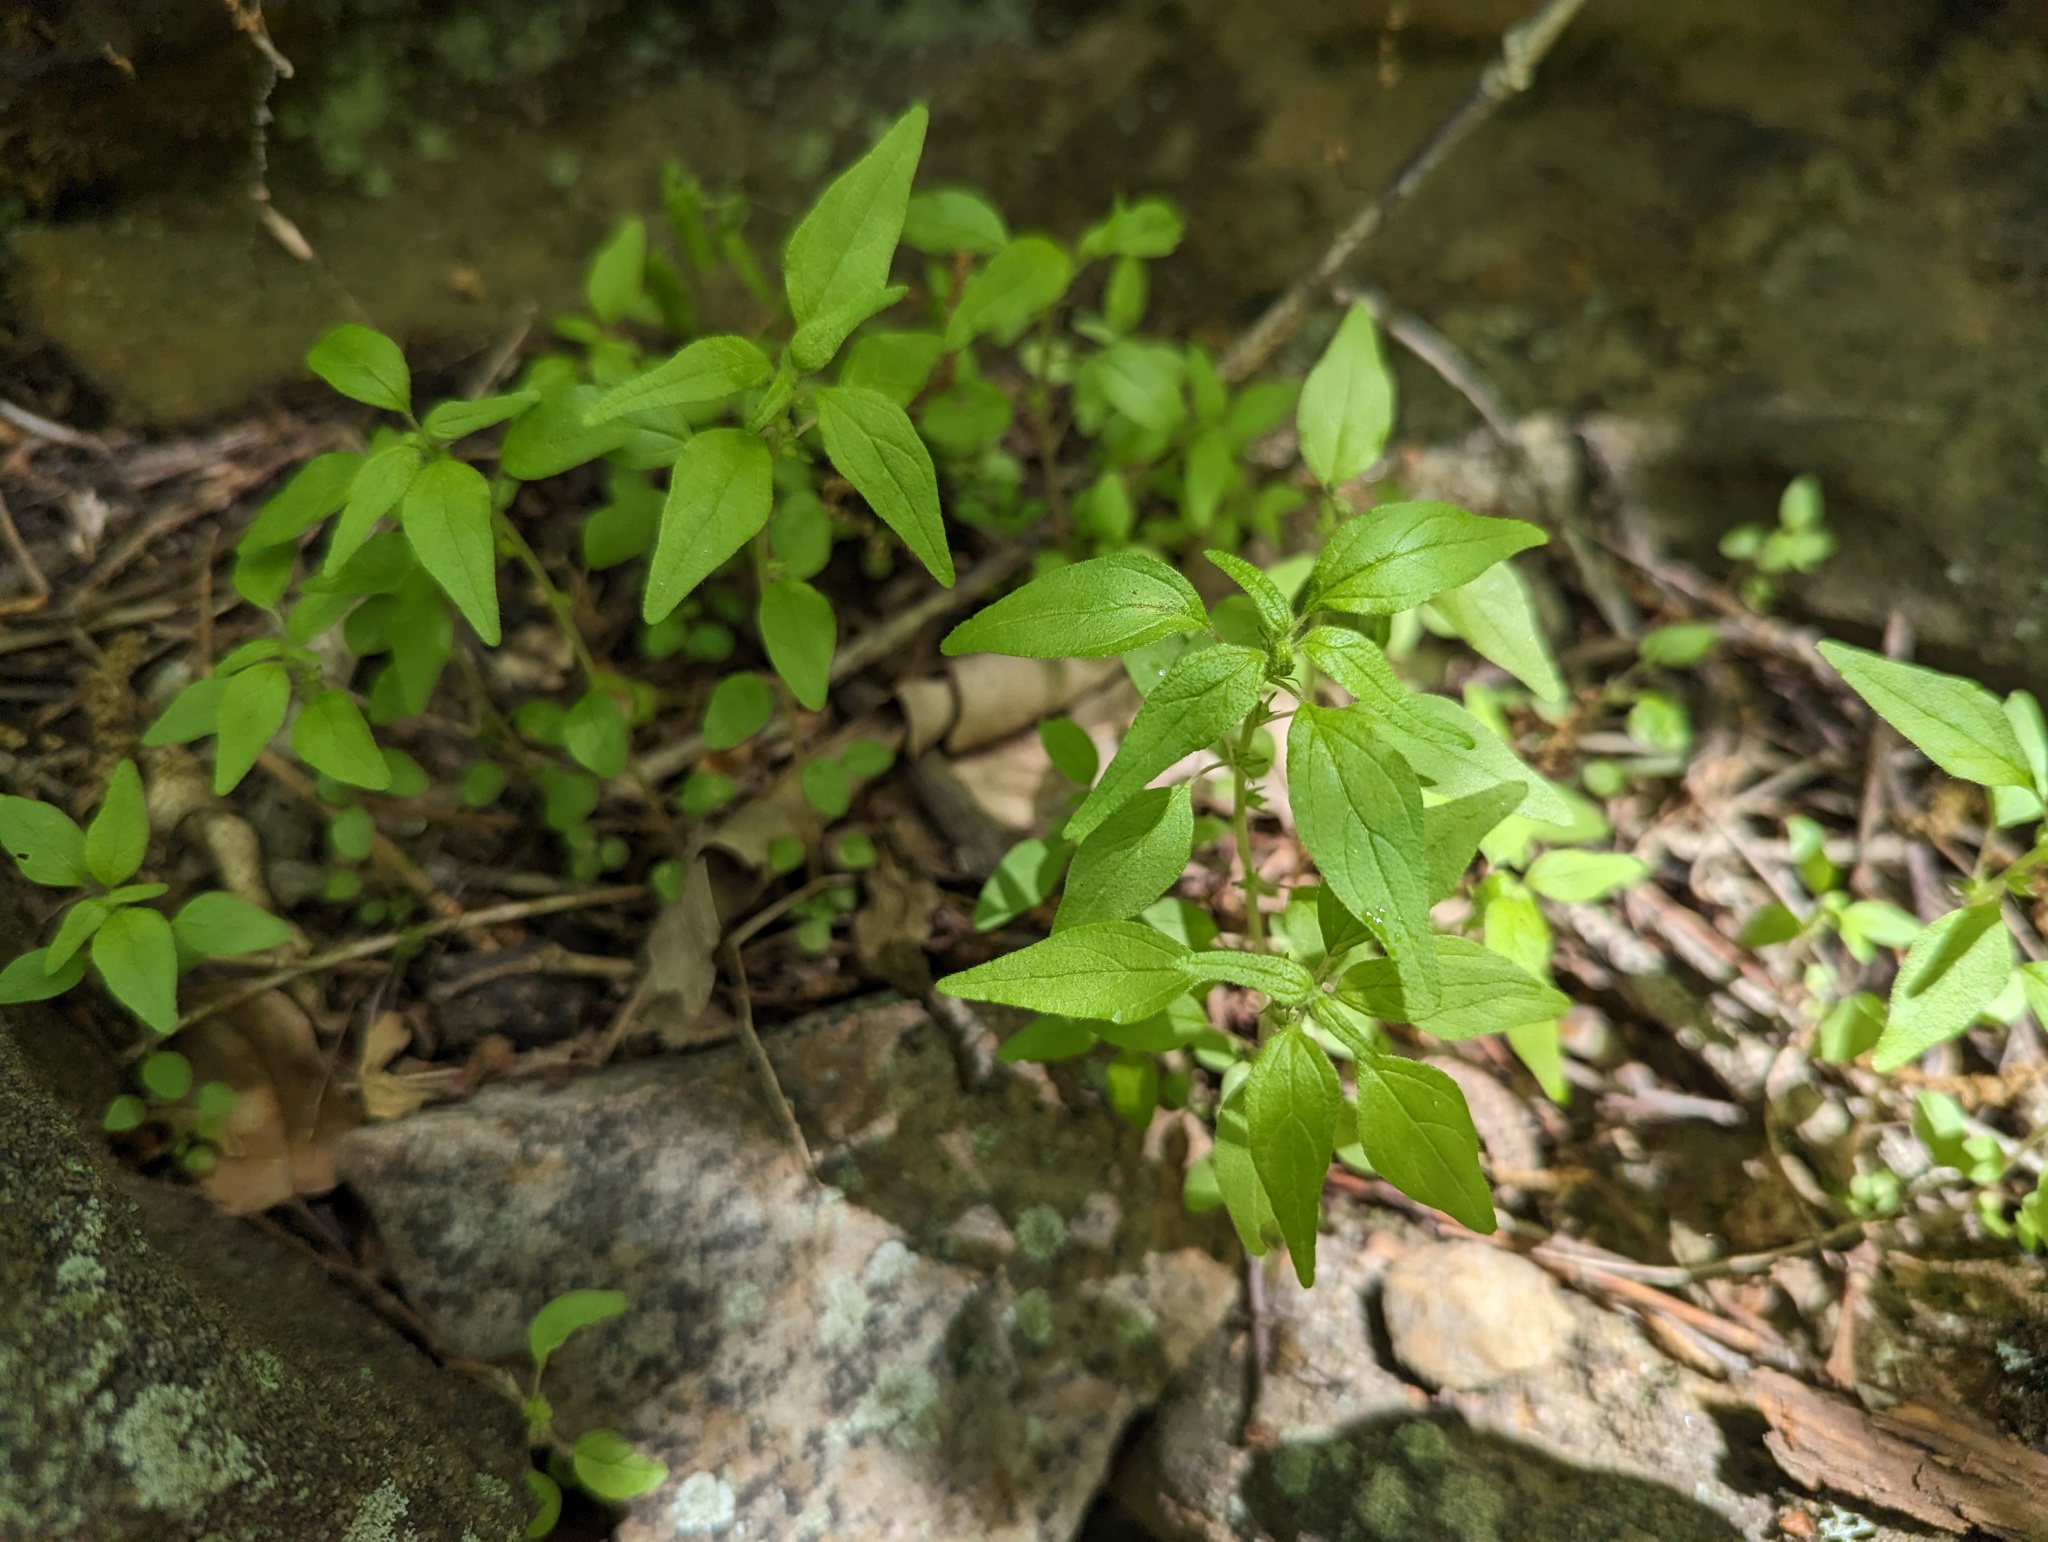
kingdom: Plantae
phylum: Tracheophyta
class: Magnoliopsida
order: Rosales
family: Urticaceae
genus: Parietaria
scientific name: Parietaria pensylvanica
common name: Pennsylvania pellitory
